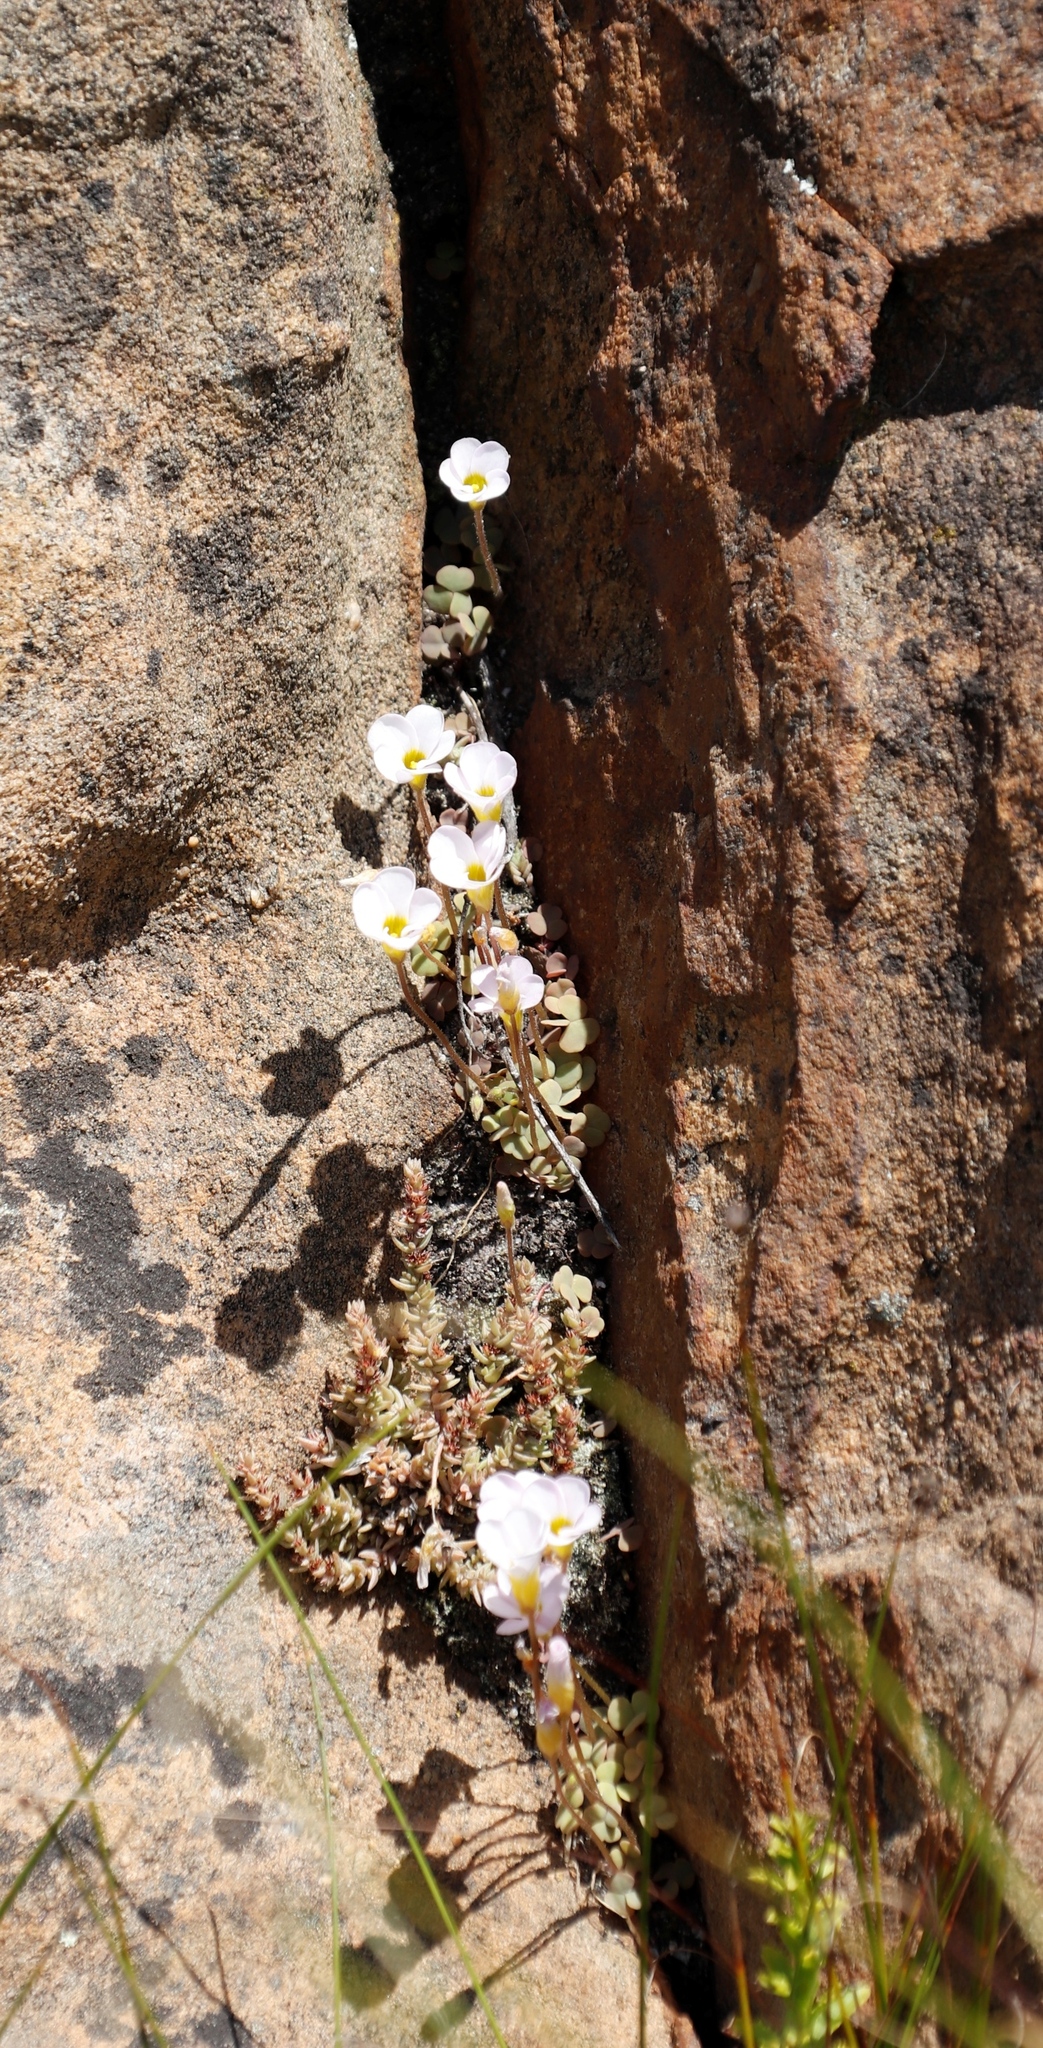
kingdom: Plantae
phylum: Tracheophyta
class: Magnoliopsida
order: Oxalidales
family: Oxalidaceae
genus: Oxalis
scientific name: Oxalis punctata
